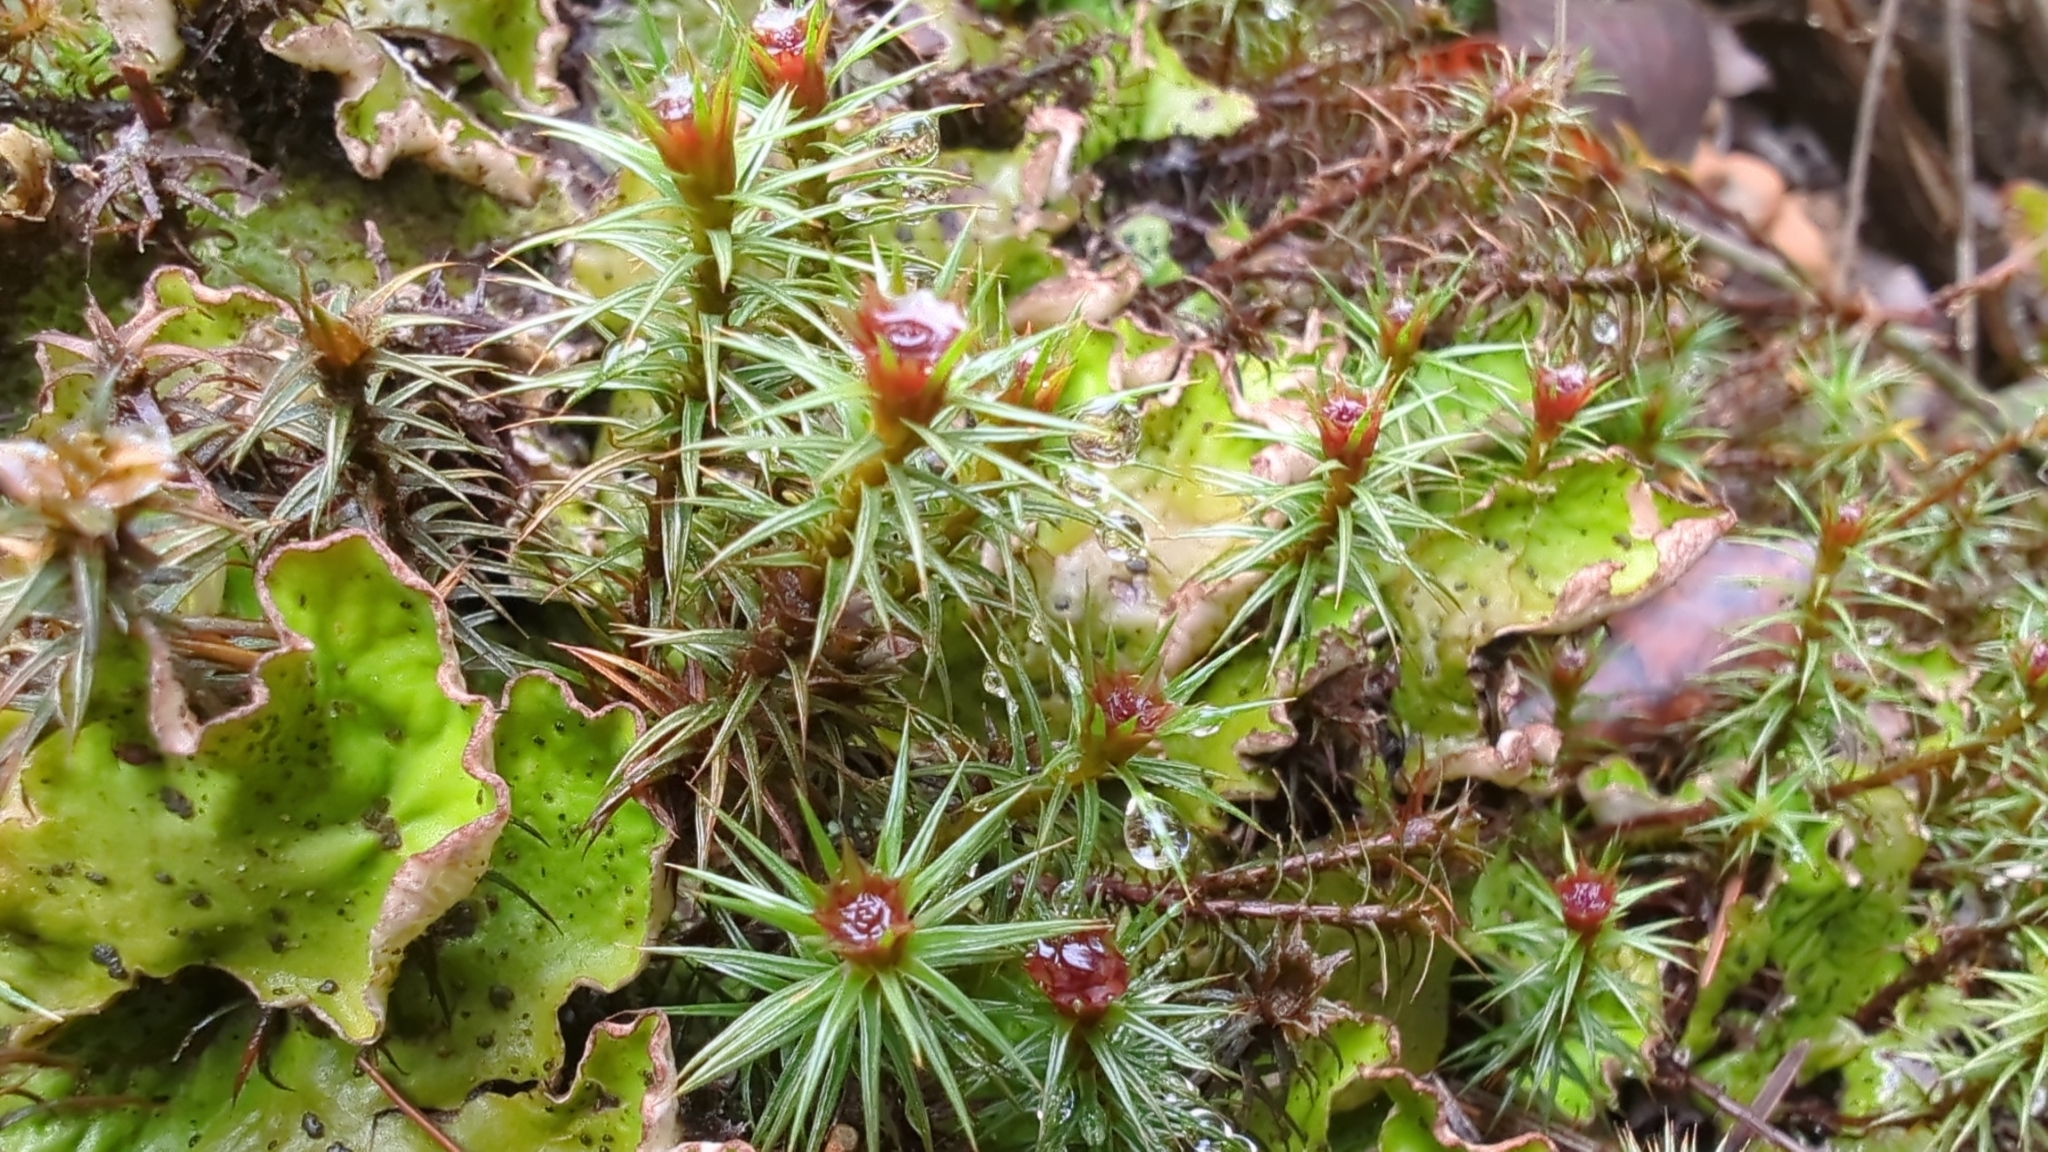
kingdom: Plantae
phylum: Bryophyta
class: Polytrichopsida
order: Polytrichales
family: Polytrichaceae
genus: Polytrichum
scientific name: Polytrichum juniperinum
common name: Juniper haircap moss
